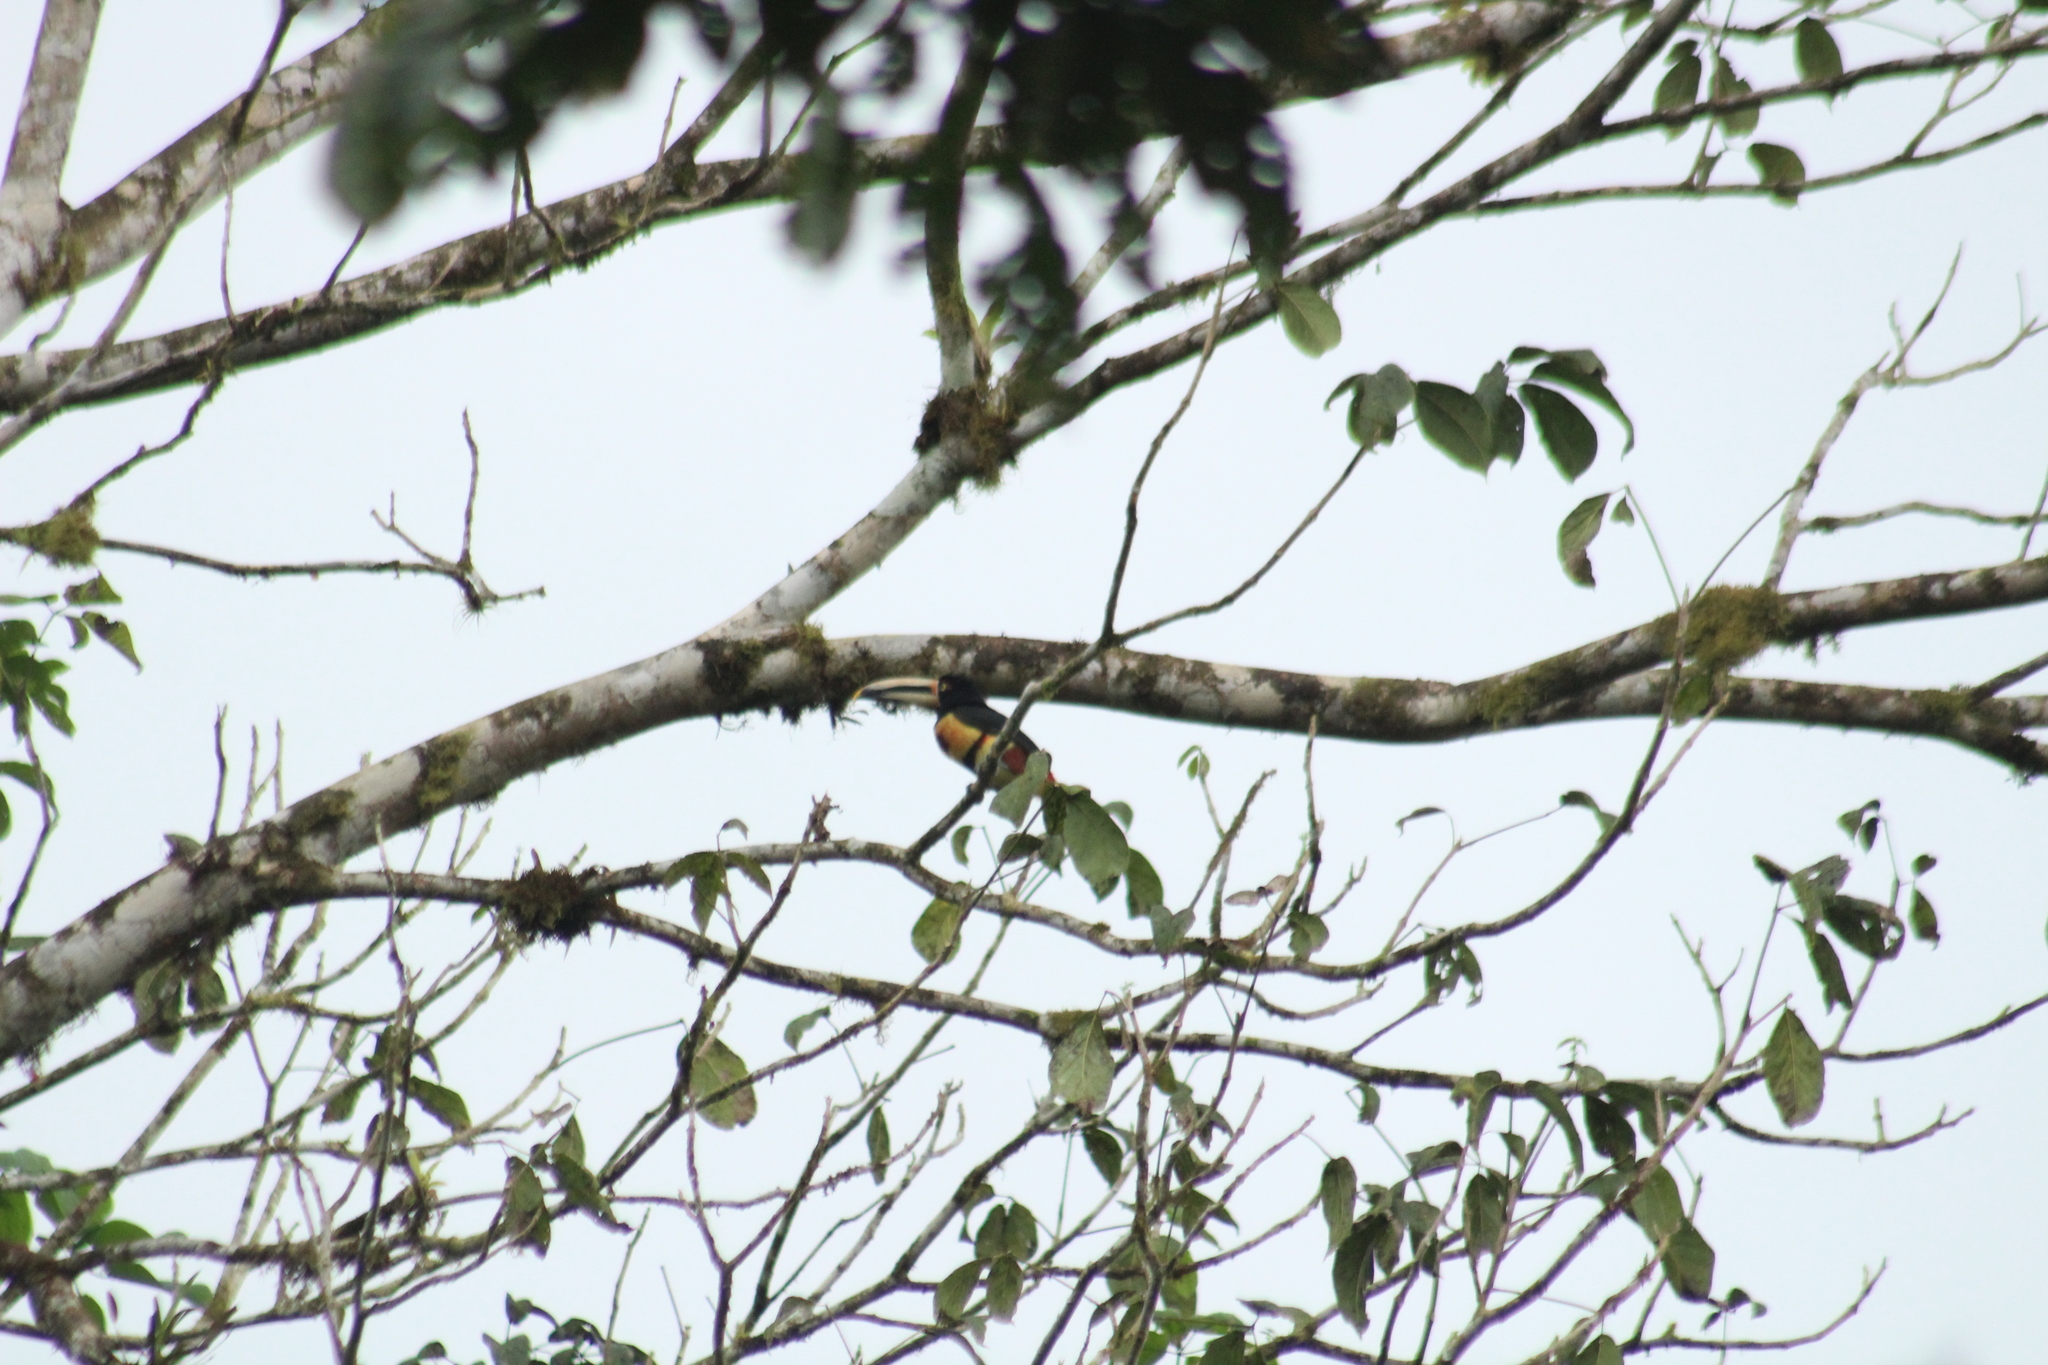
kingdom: Animalia
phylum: Chordata
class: Aves
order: Piciformes
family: Ramphastidae
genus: Pteroglossus
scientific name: Pteroglossus torquatus
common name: Collared aracari
